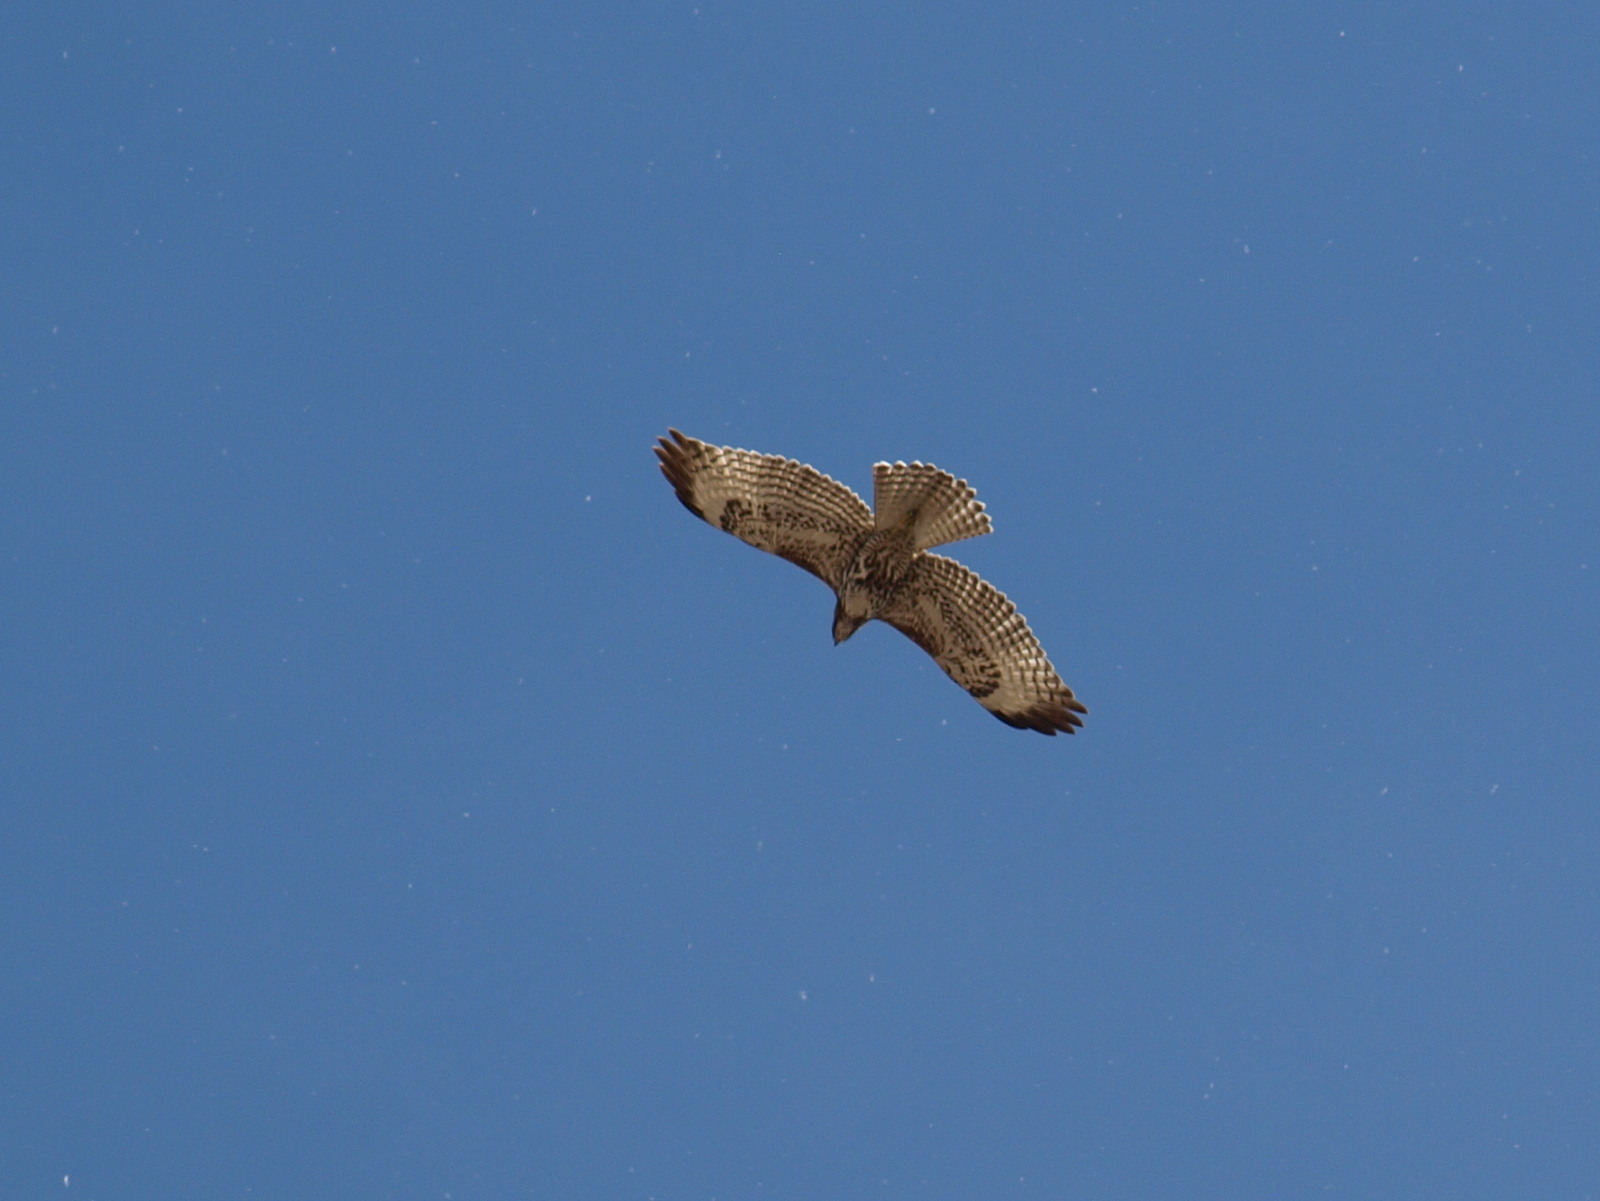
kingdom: Animalia
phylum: Chordata
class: Aves
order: Accipitriformes
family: Accipitridae
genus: Buteo
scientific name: Buteo jamaicensis
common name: Red-tailed hawk
